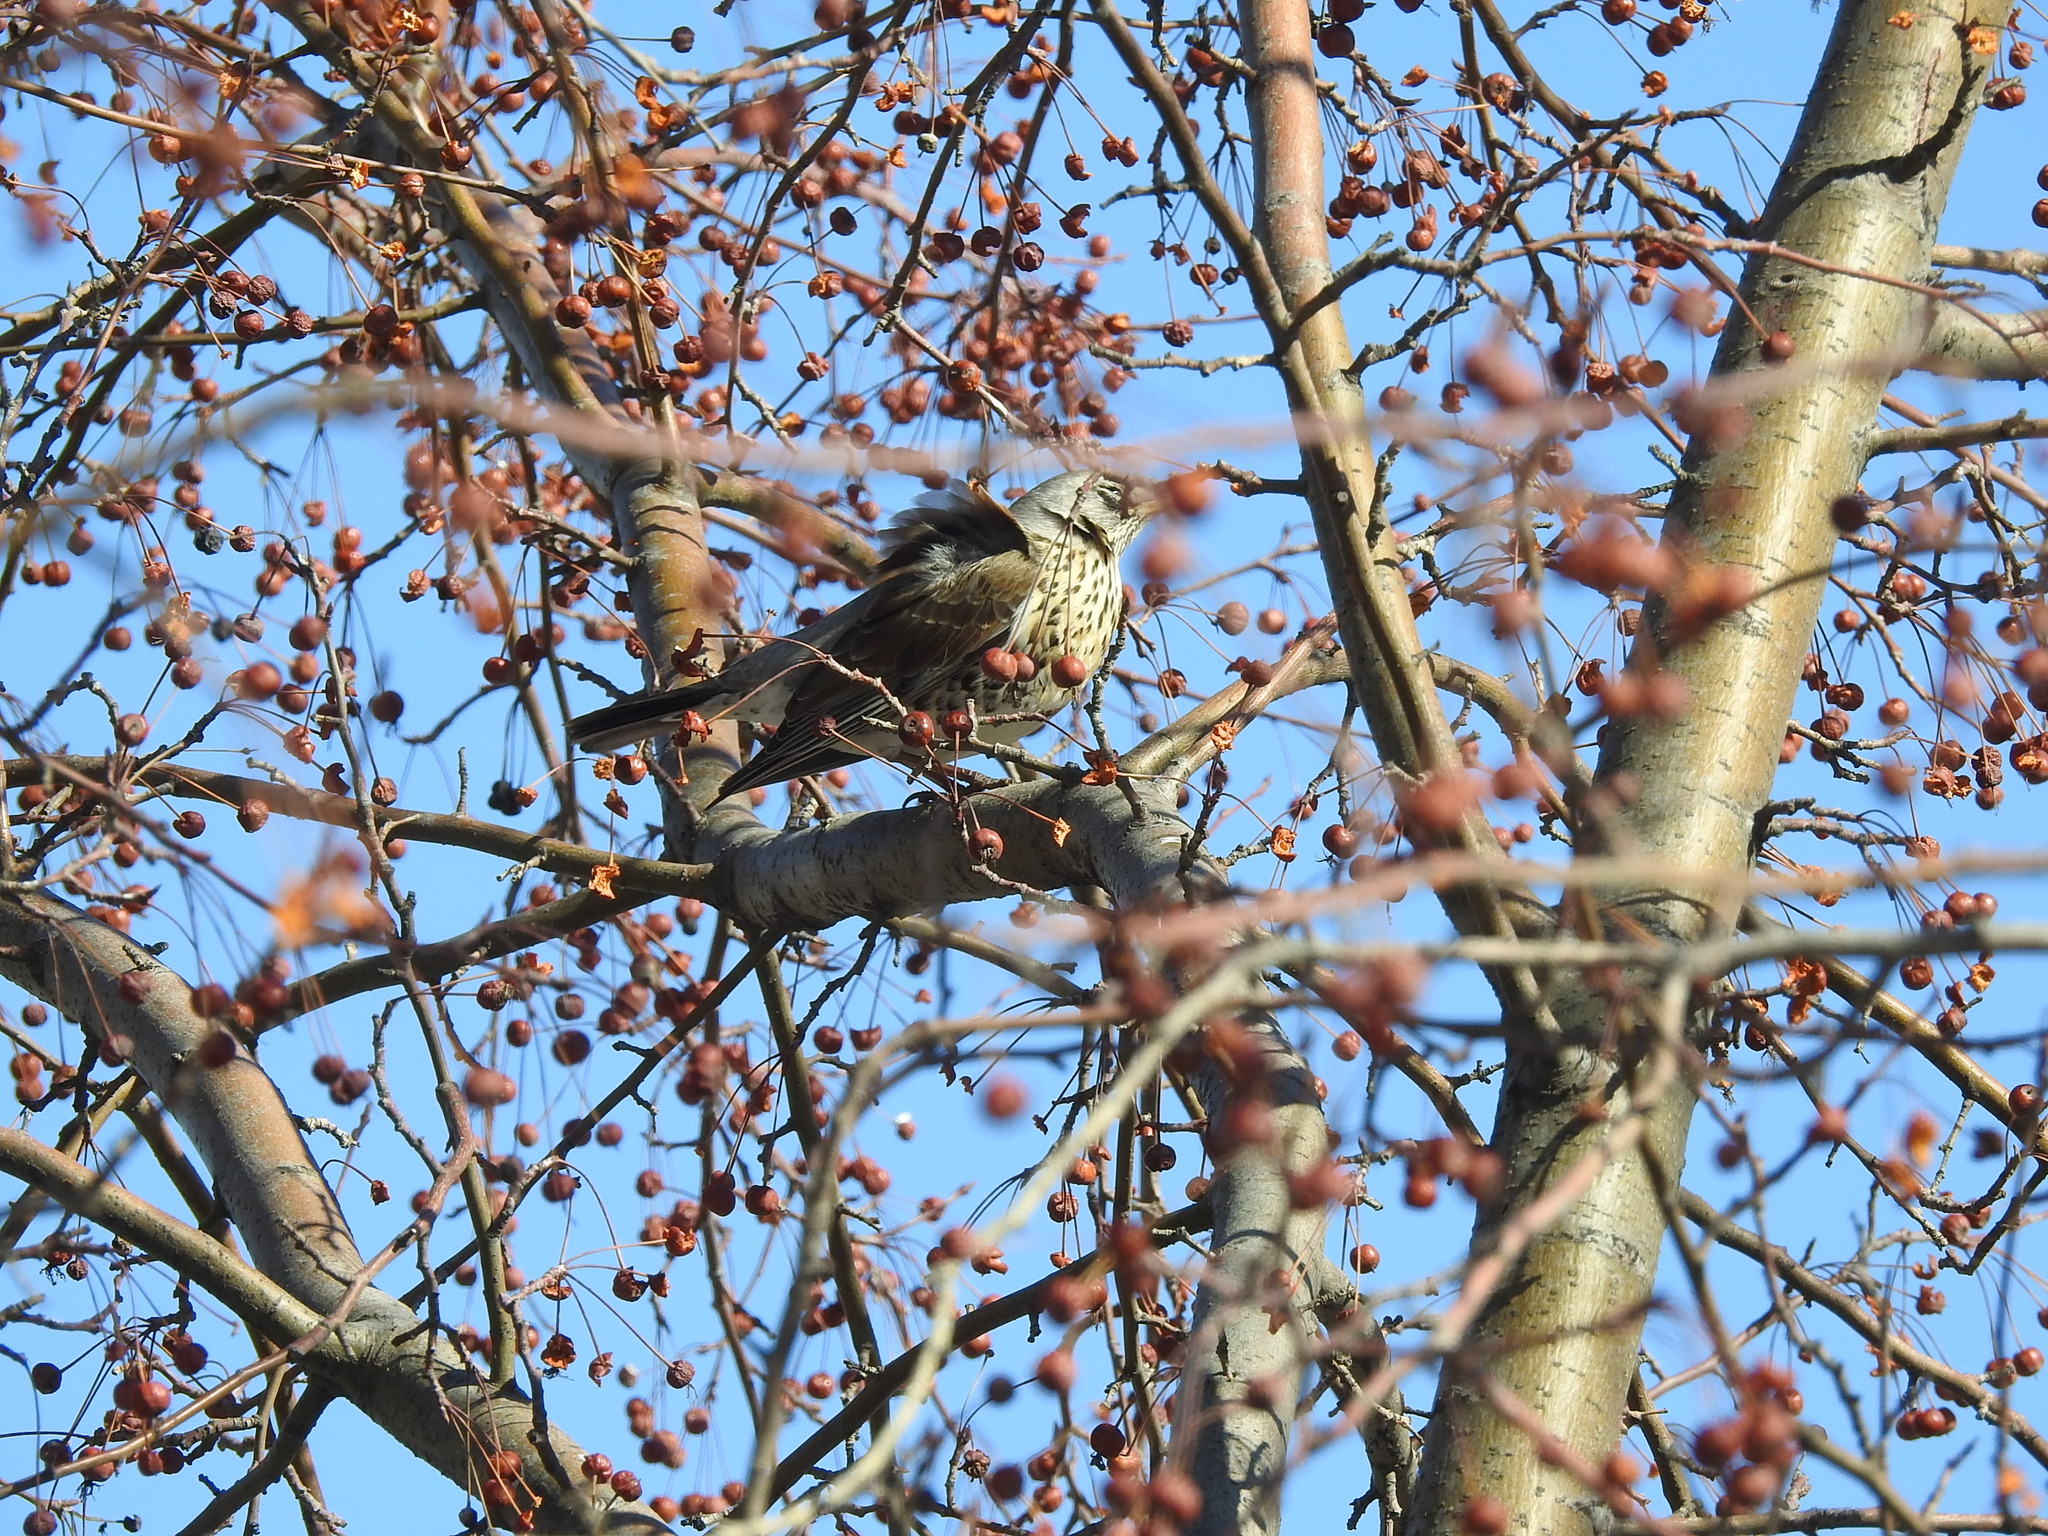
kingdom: Animalia
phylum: Chordata
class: Aves
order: Passeriformes
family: Turdidae
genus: Turdus
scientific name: Turdus pilaris
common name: Fieldfare
